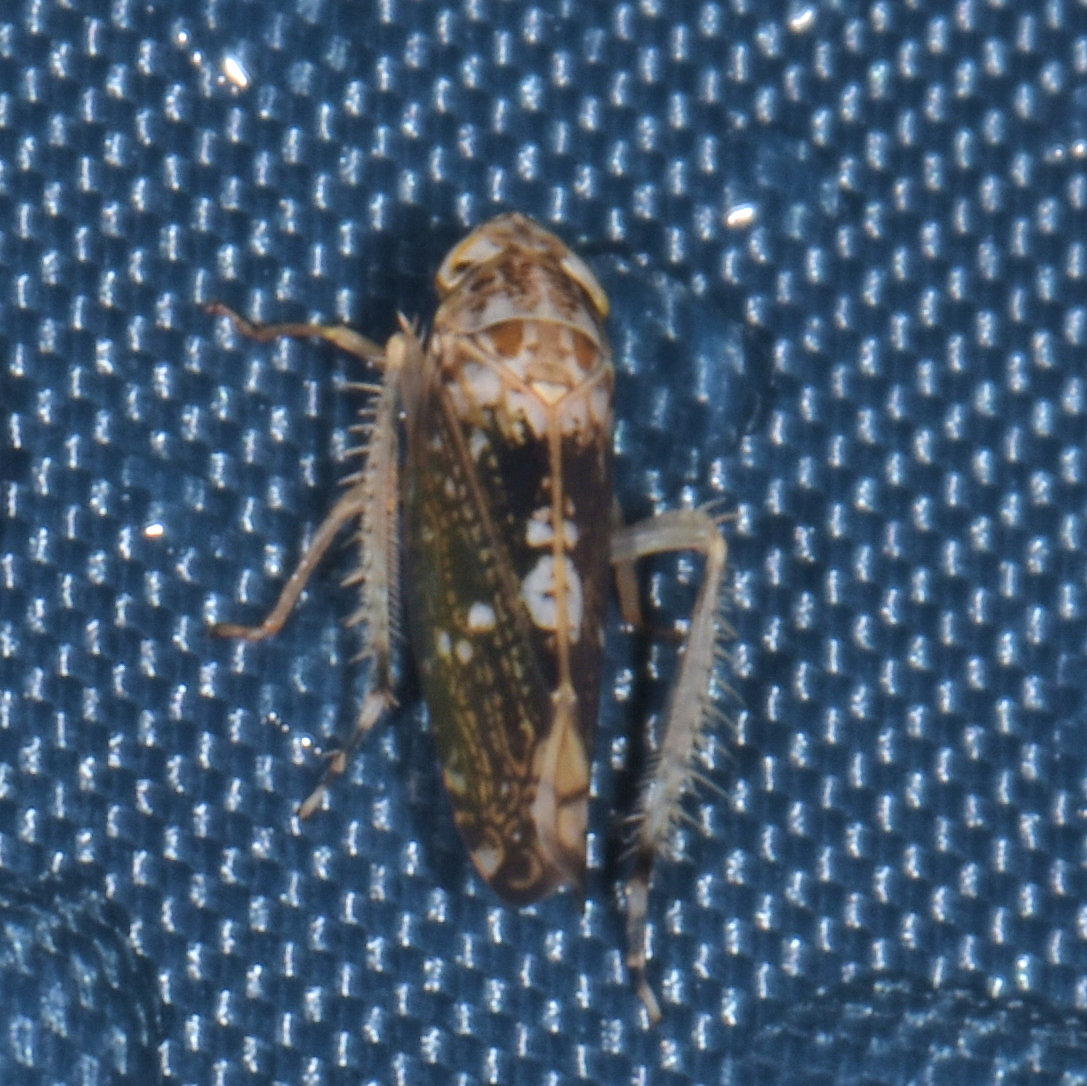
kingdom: Animalia
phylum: Arthropoda
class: Insecta
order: Hemiptera
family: Cicadellidae
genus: Prescottia
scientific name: Prescottia lobata
